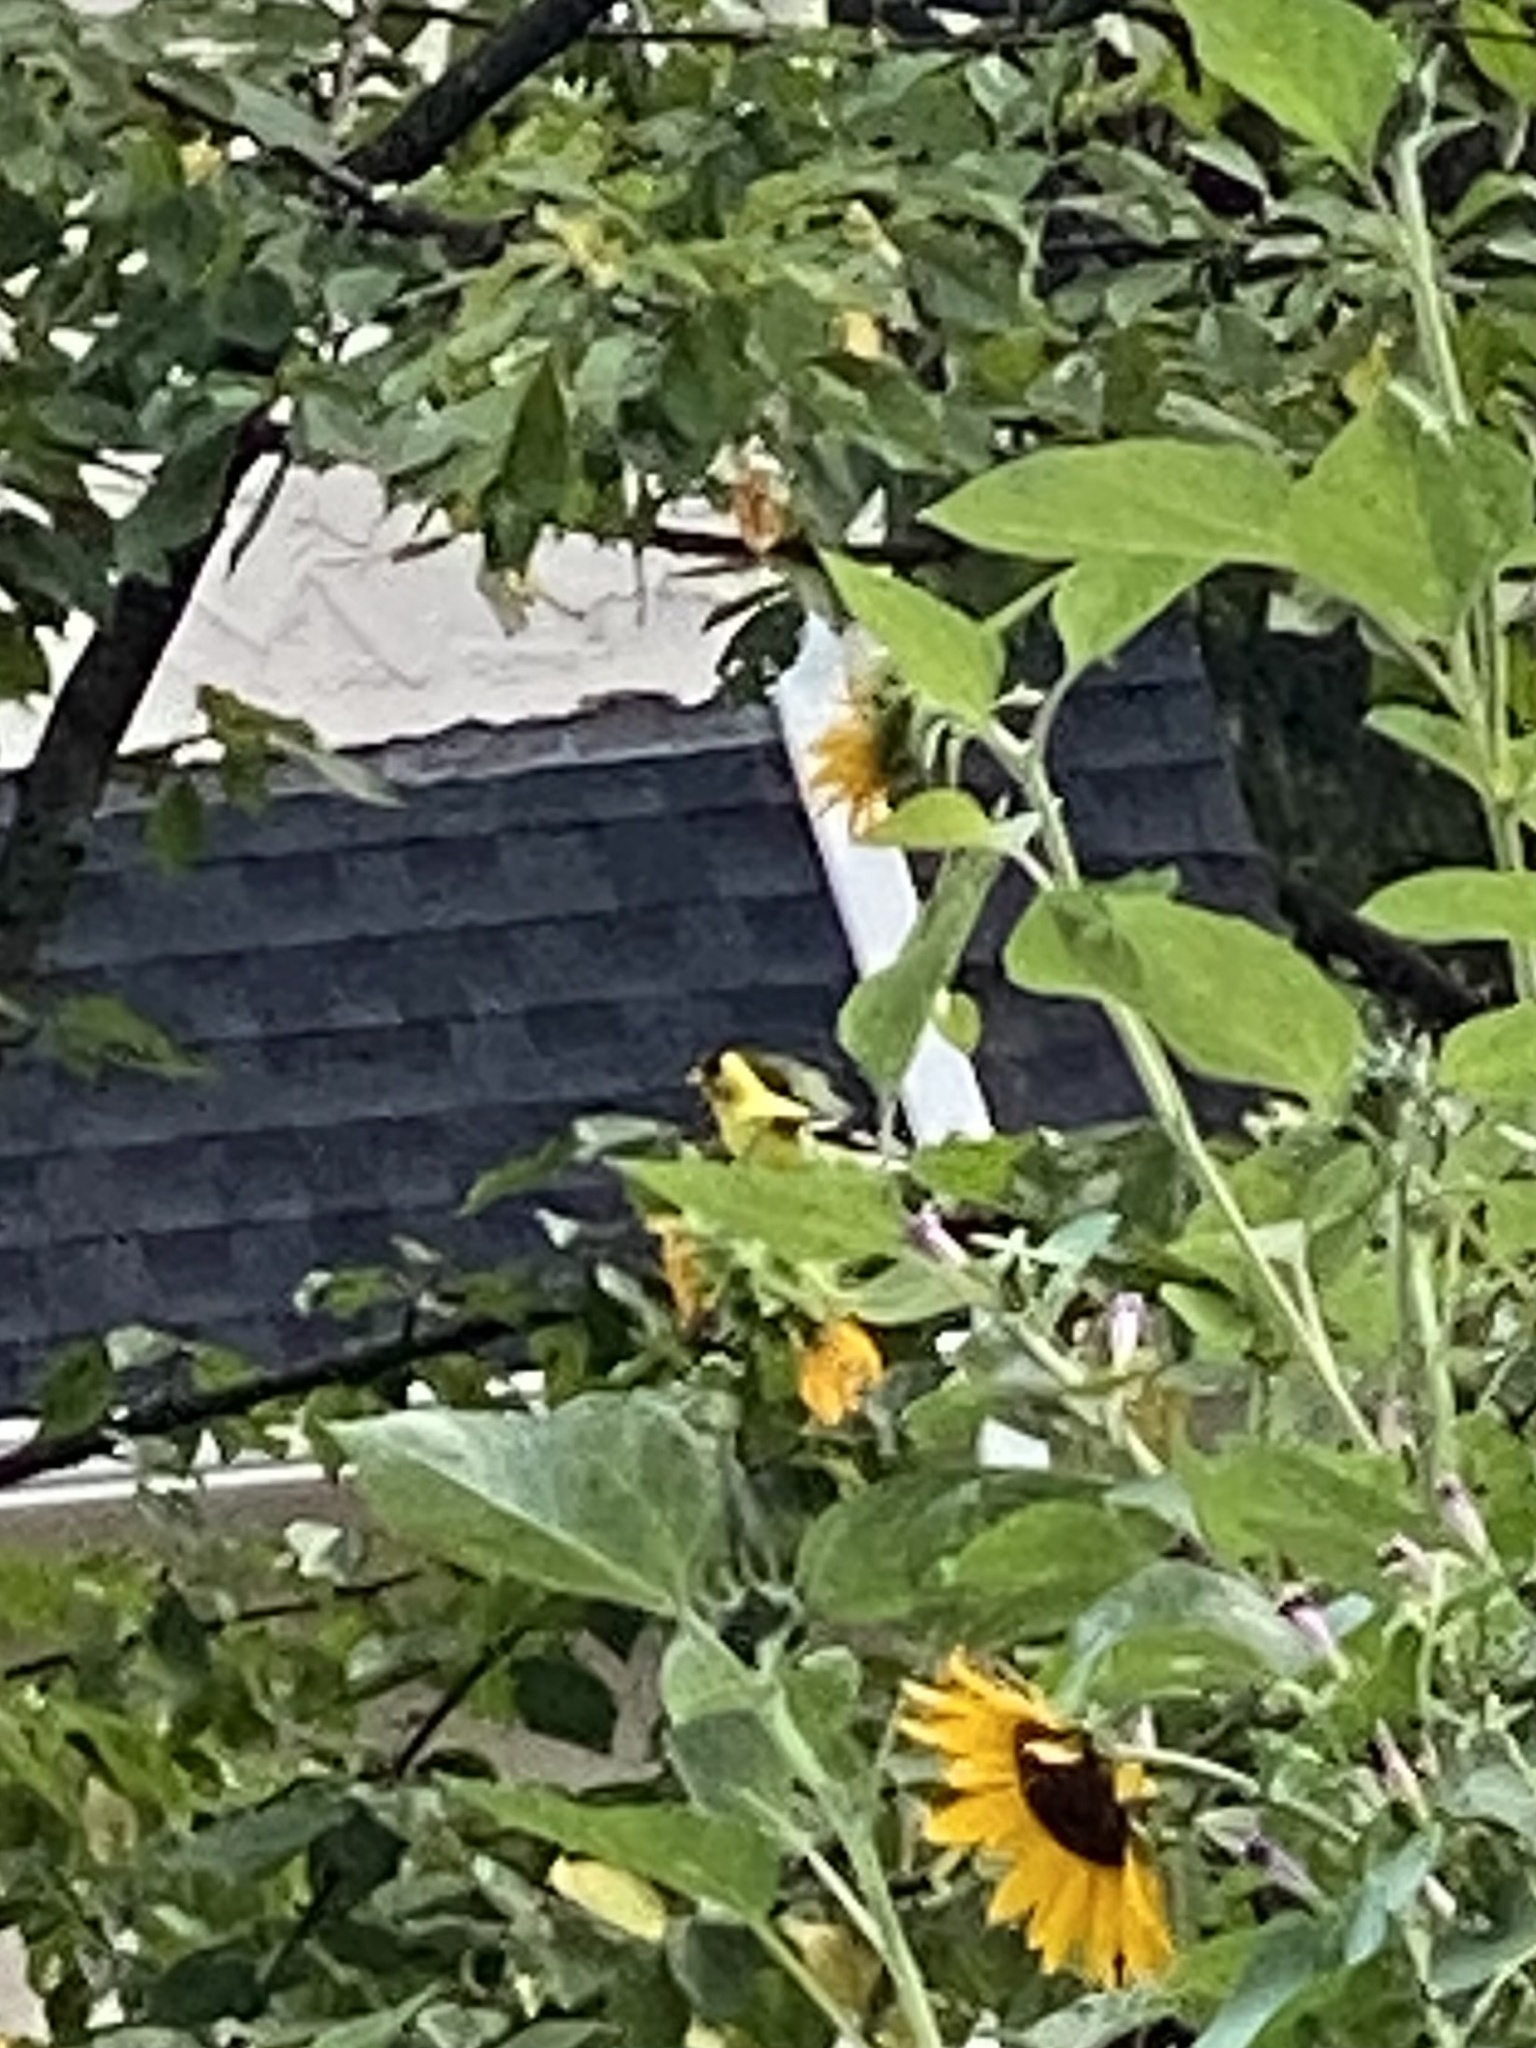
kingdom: Animalia
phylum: Chordata
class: Aves
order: Passeriformes
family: Fringillidae
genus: Spinus
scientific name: Spinus tristis
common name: American goldfinch
